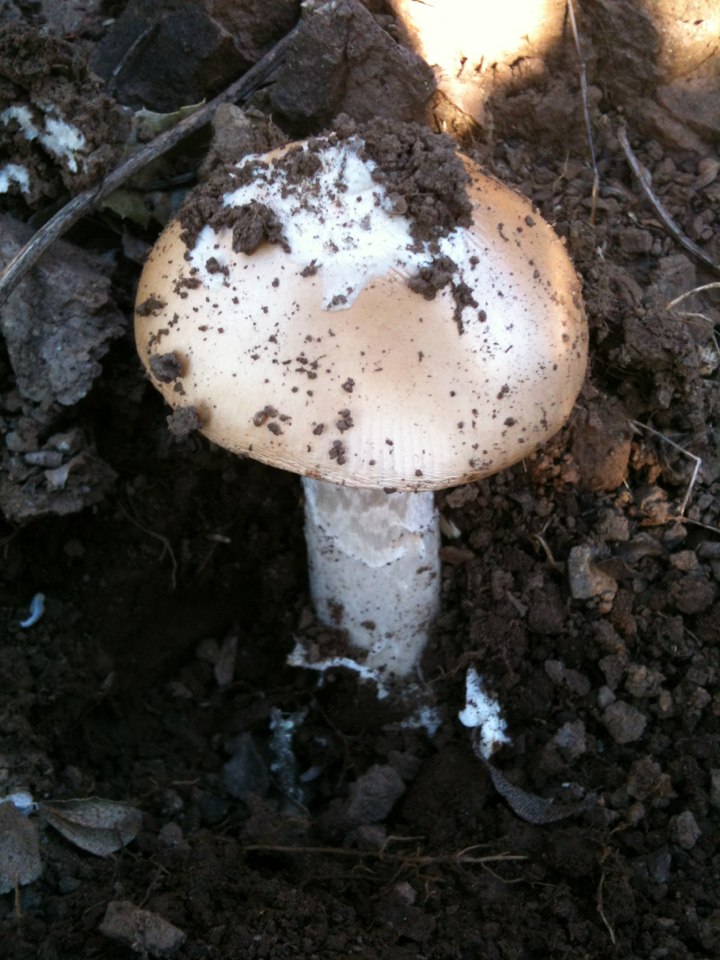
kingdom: Fungi
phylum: Basidiomycota
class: Agaricomycetes
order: Agaricales
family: Amanitaceae
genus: Amanita
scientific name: Amanita velosa
